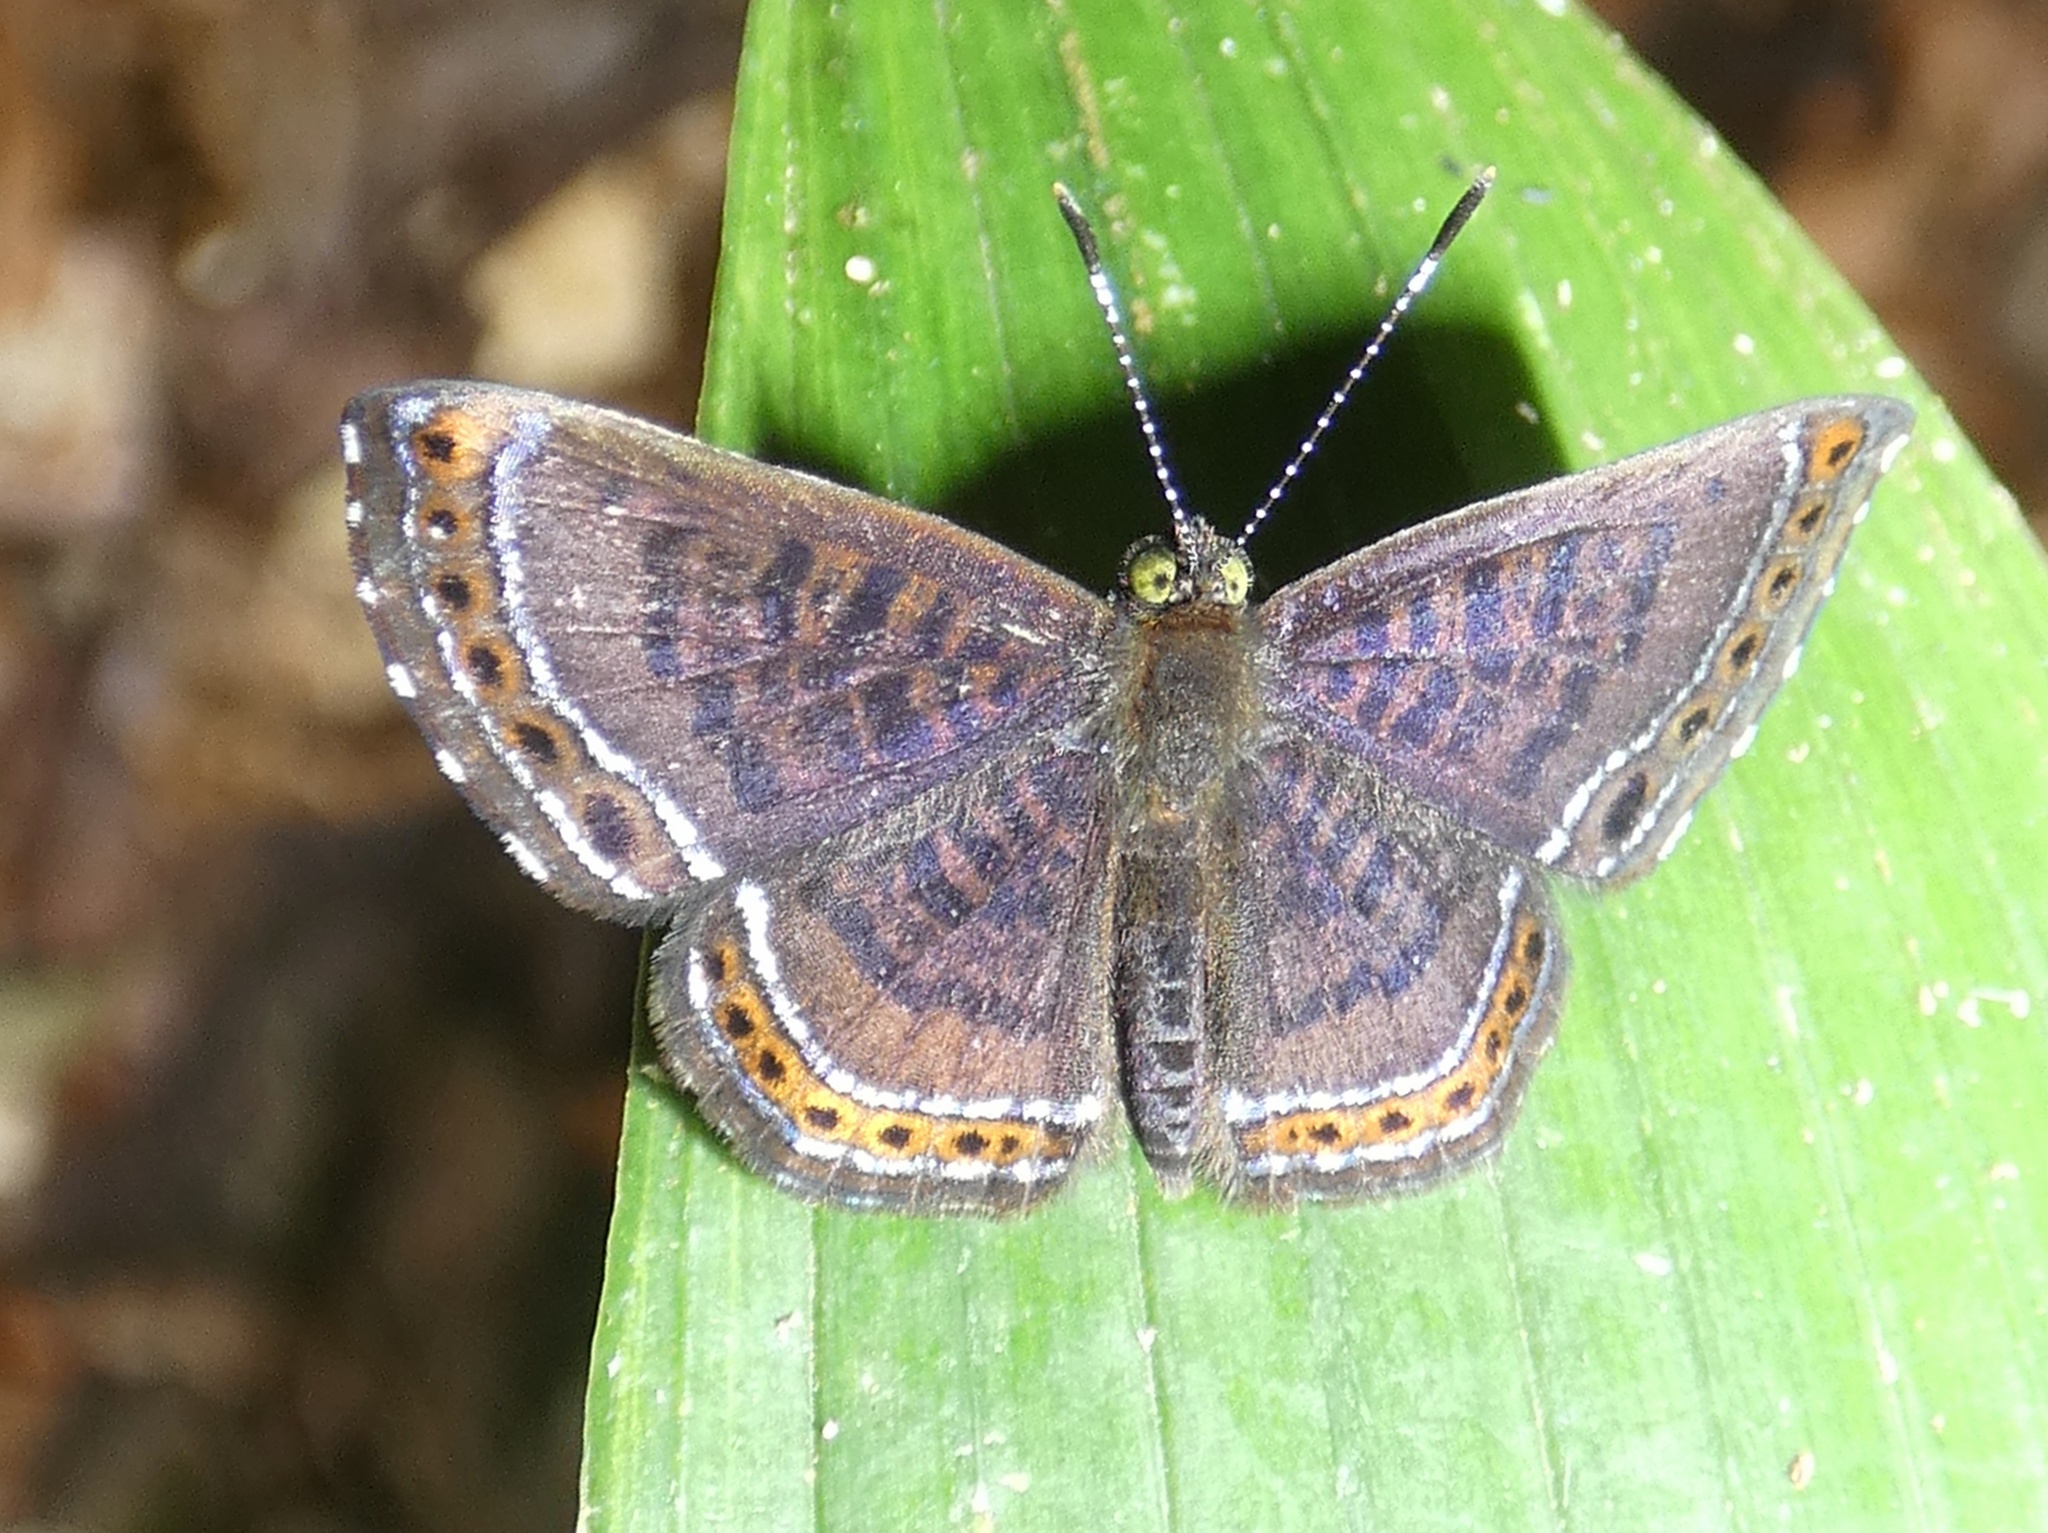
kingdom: Animalia
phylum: Arthropoda
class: Insecta
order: Lepidoptera
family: Riodinidae
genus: Detritivora
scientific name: Detritivora
